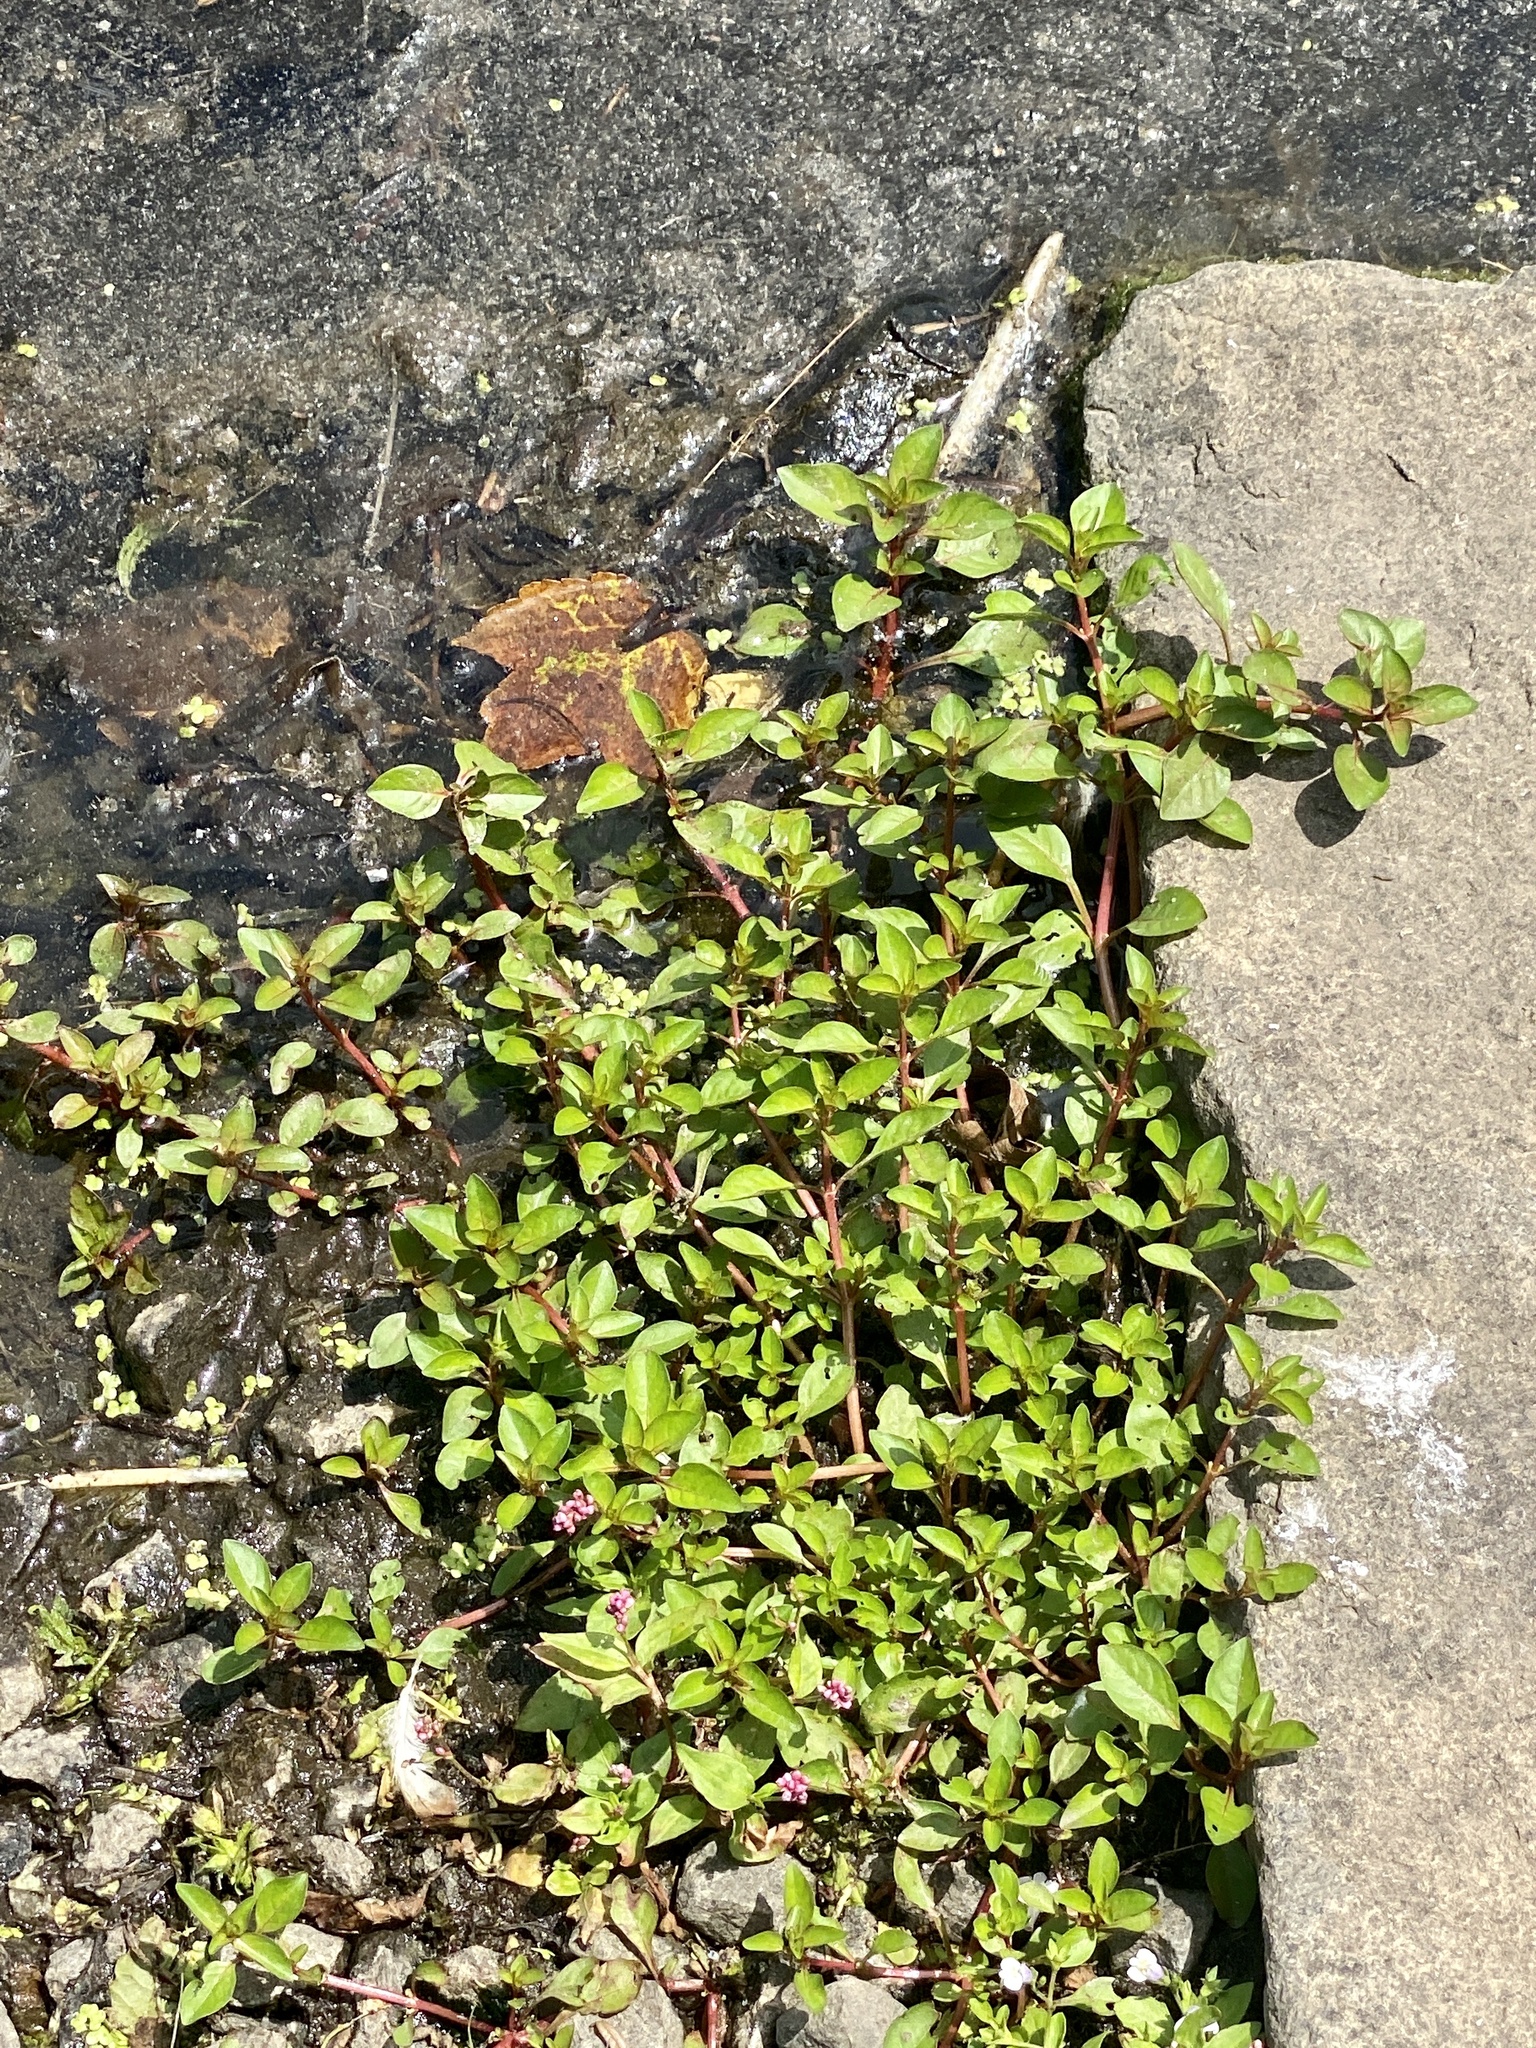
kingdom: Plantae
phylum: Tracheophyta
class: Magnoliopsida
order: Myrtales
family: Onagraceae
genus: Ludwigia
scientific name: Ludwigia palustris
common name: Hampshire-purslane
